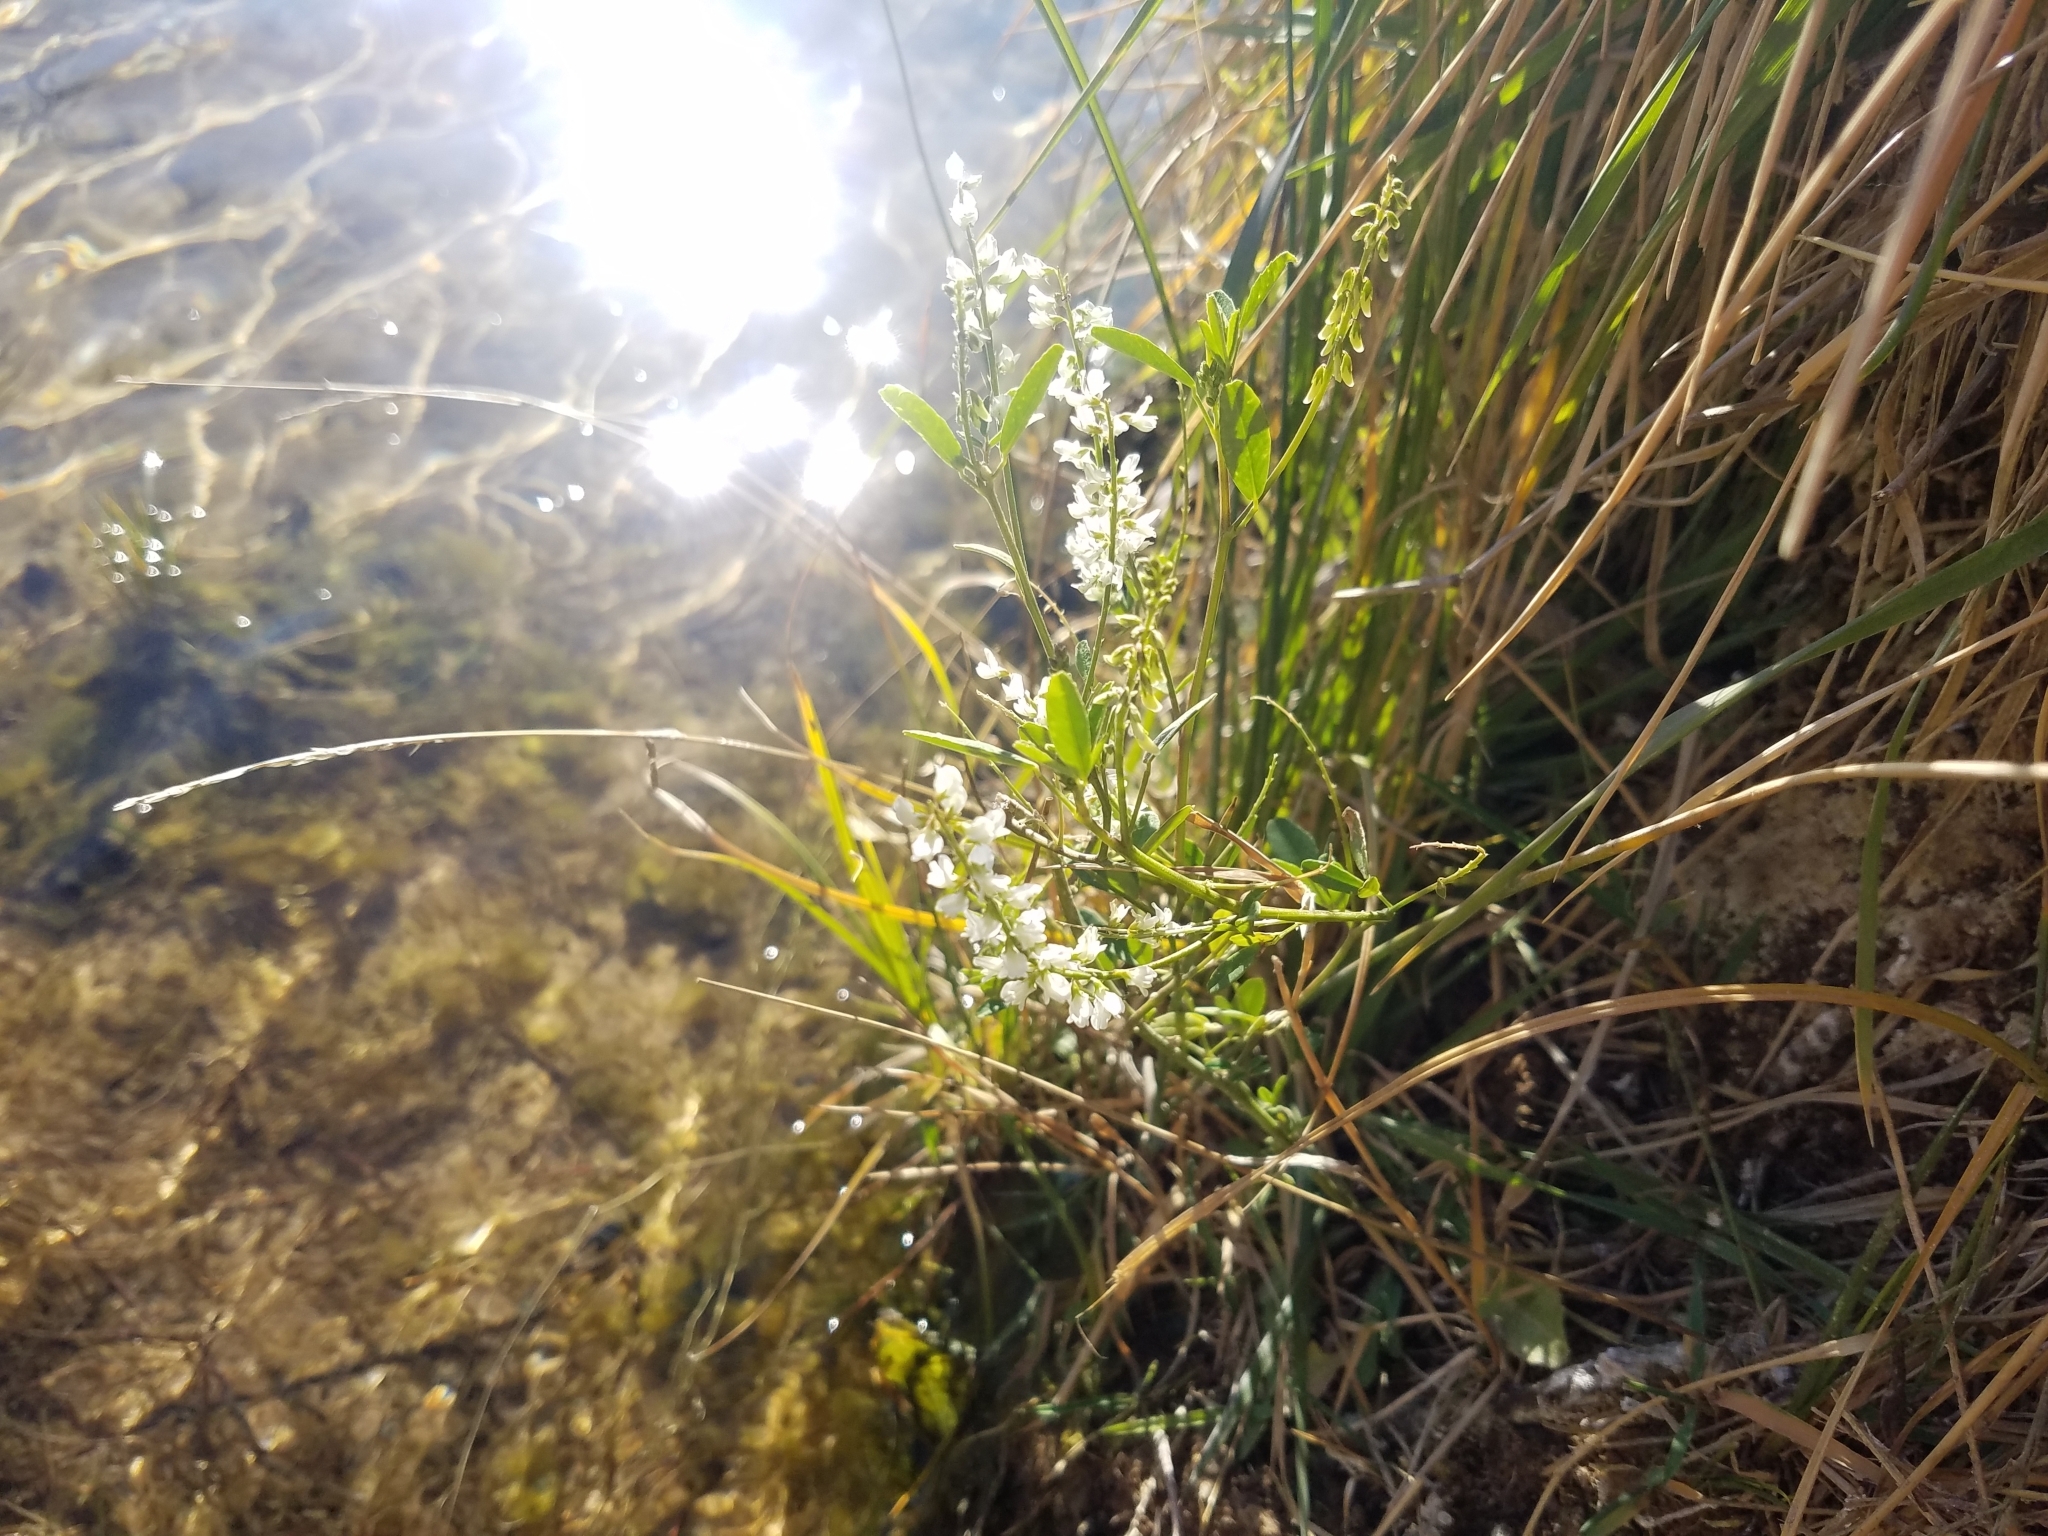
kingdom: Plantae
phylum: Tracheophyta
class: Magnoliopsida
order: Fabales
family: Fabaceae
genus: Melilotus
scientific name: Melilotus albus
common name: White melilot
